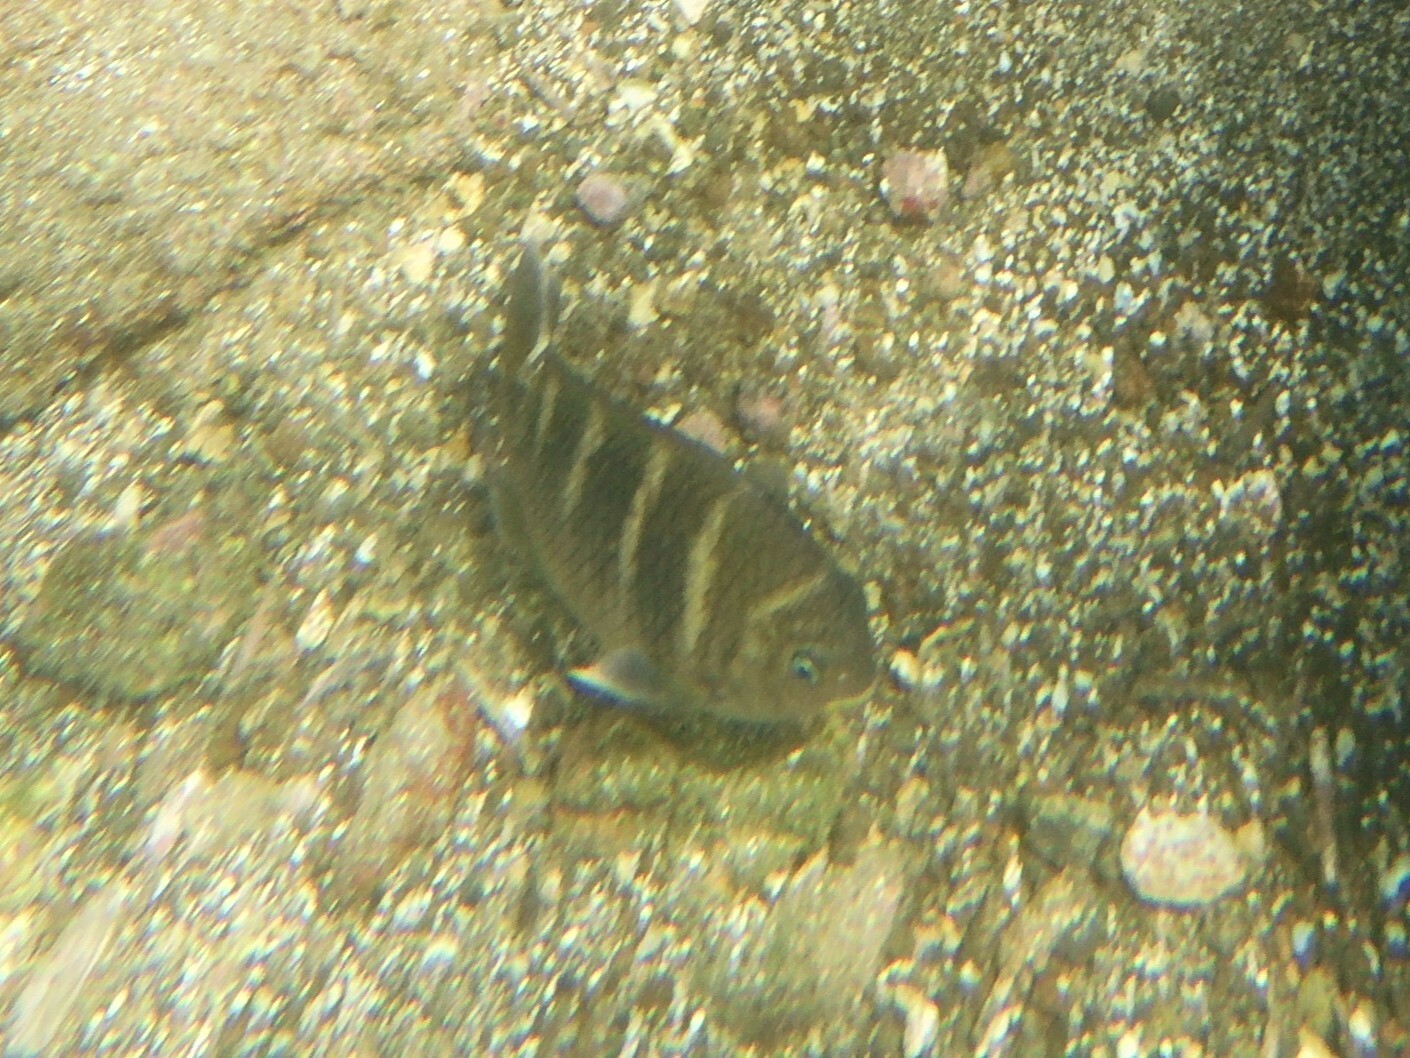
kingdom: Animalia
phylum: Chordata
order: Perciformes
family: Pomacentridae
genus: Abudefduf
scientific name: Abudefduf concolor
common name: Dusky seargent
